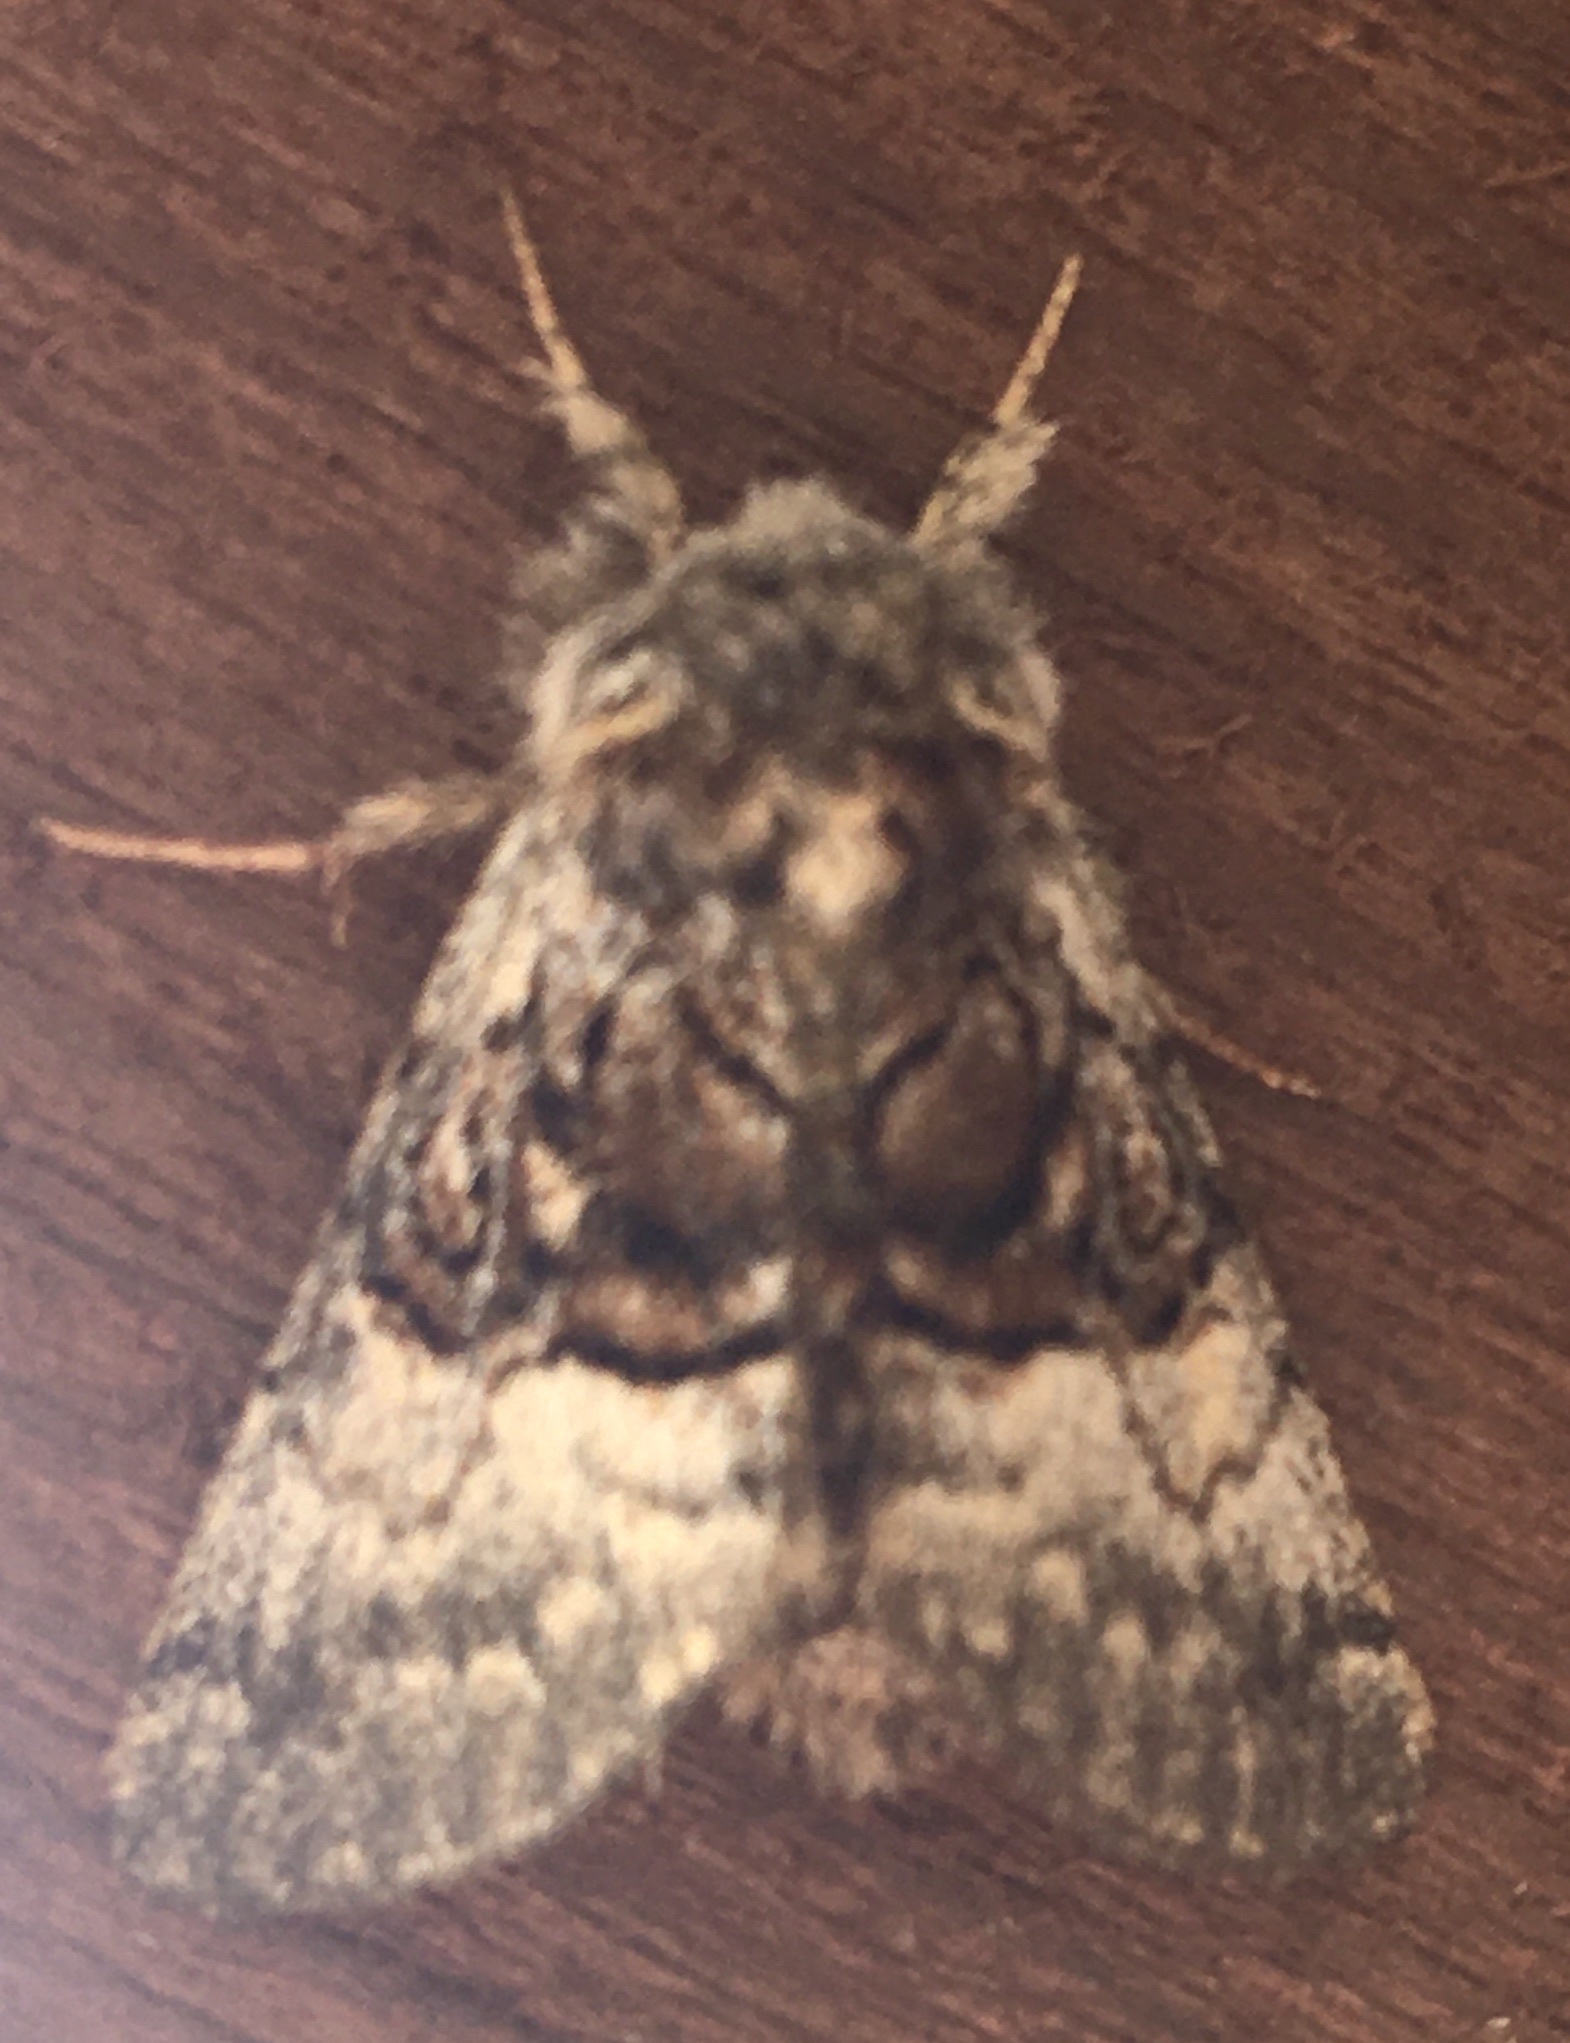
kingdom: Animalia
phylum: Arthropoda
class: Insecta
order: Lepidoptera
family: Noctuidae
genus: Colocasia
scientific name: Colocasia coryli
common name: Nut-tree tussock
